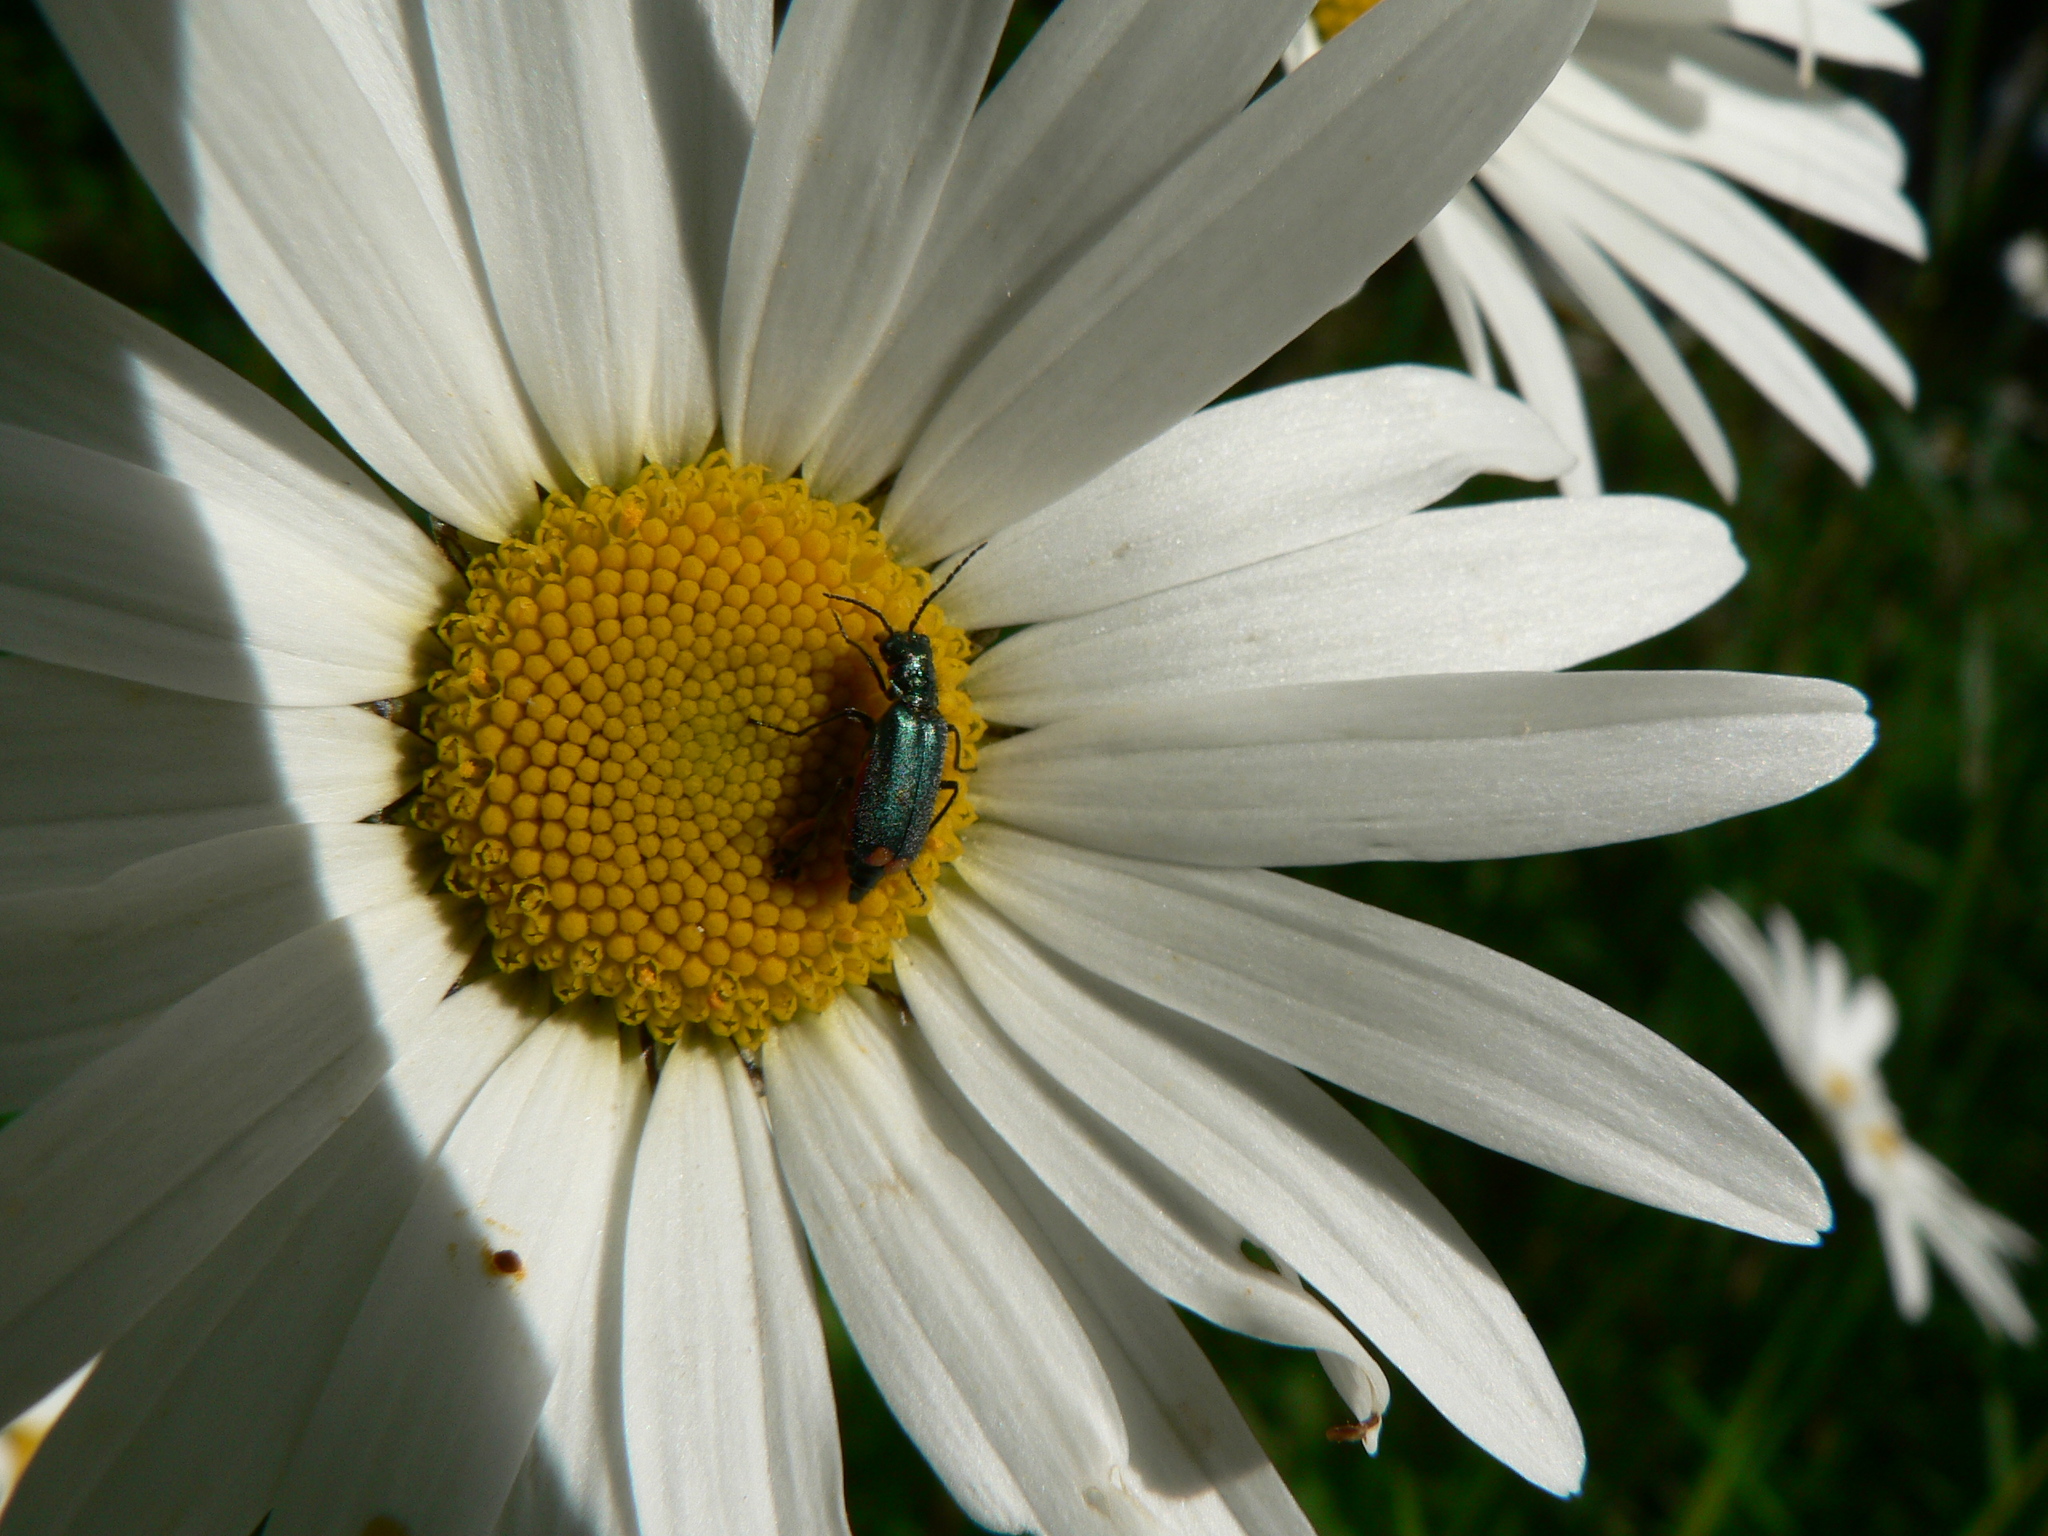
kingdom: Animalia
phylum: Arthropoda
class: Insecta
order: Coleoptera
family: Melyridae
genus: Malachius
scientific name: Malachius bipustulatus
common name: Malachite beetle
